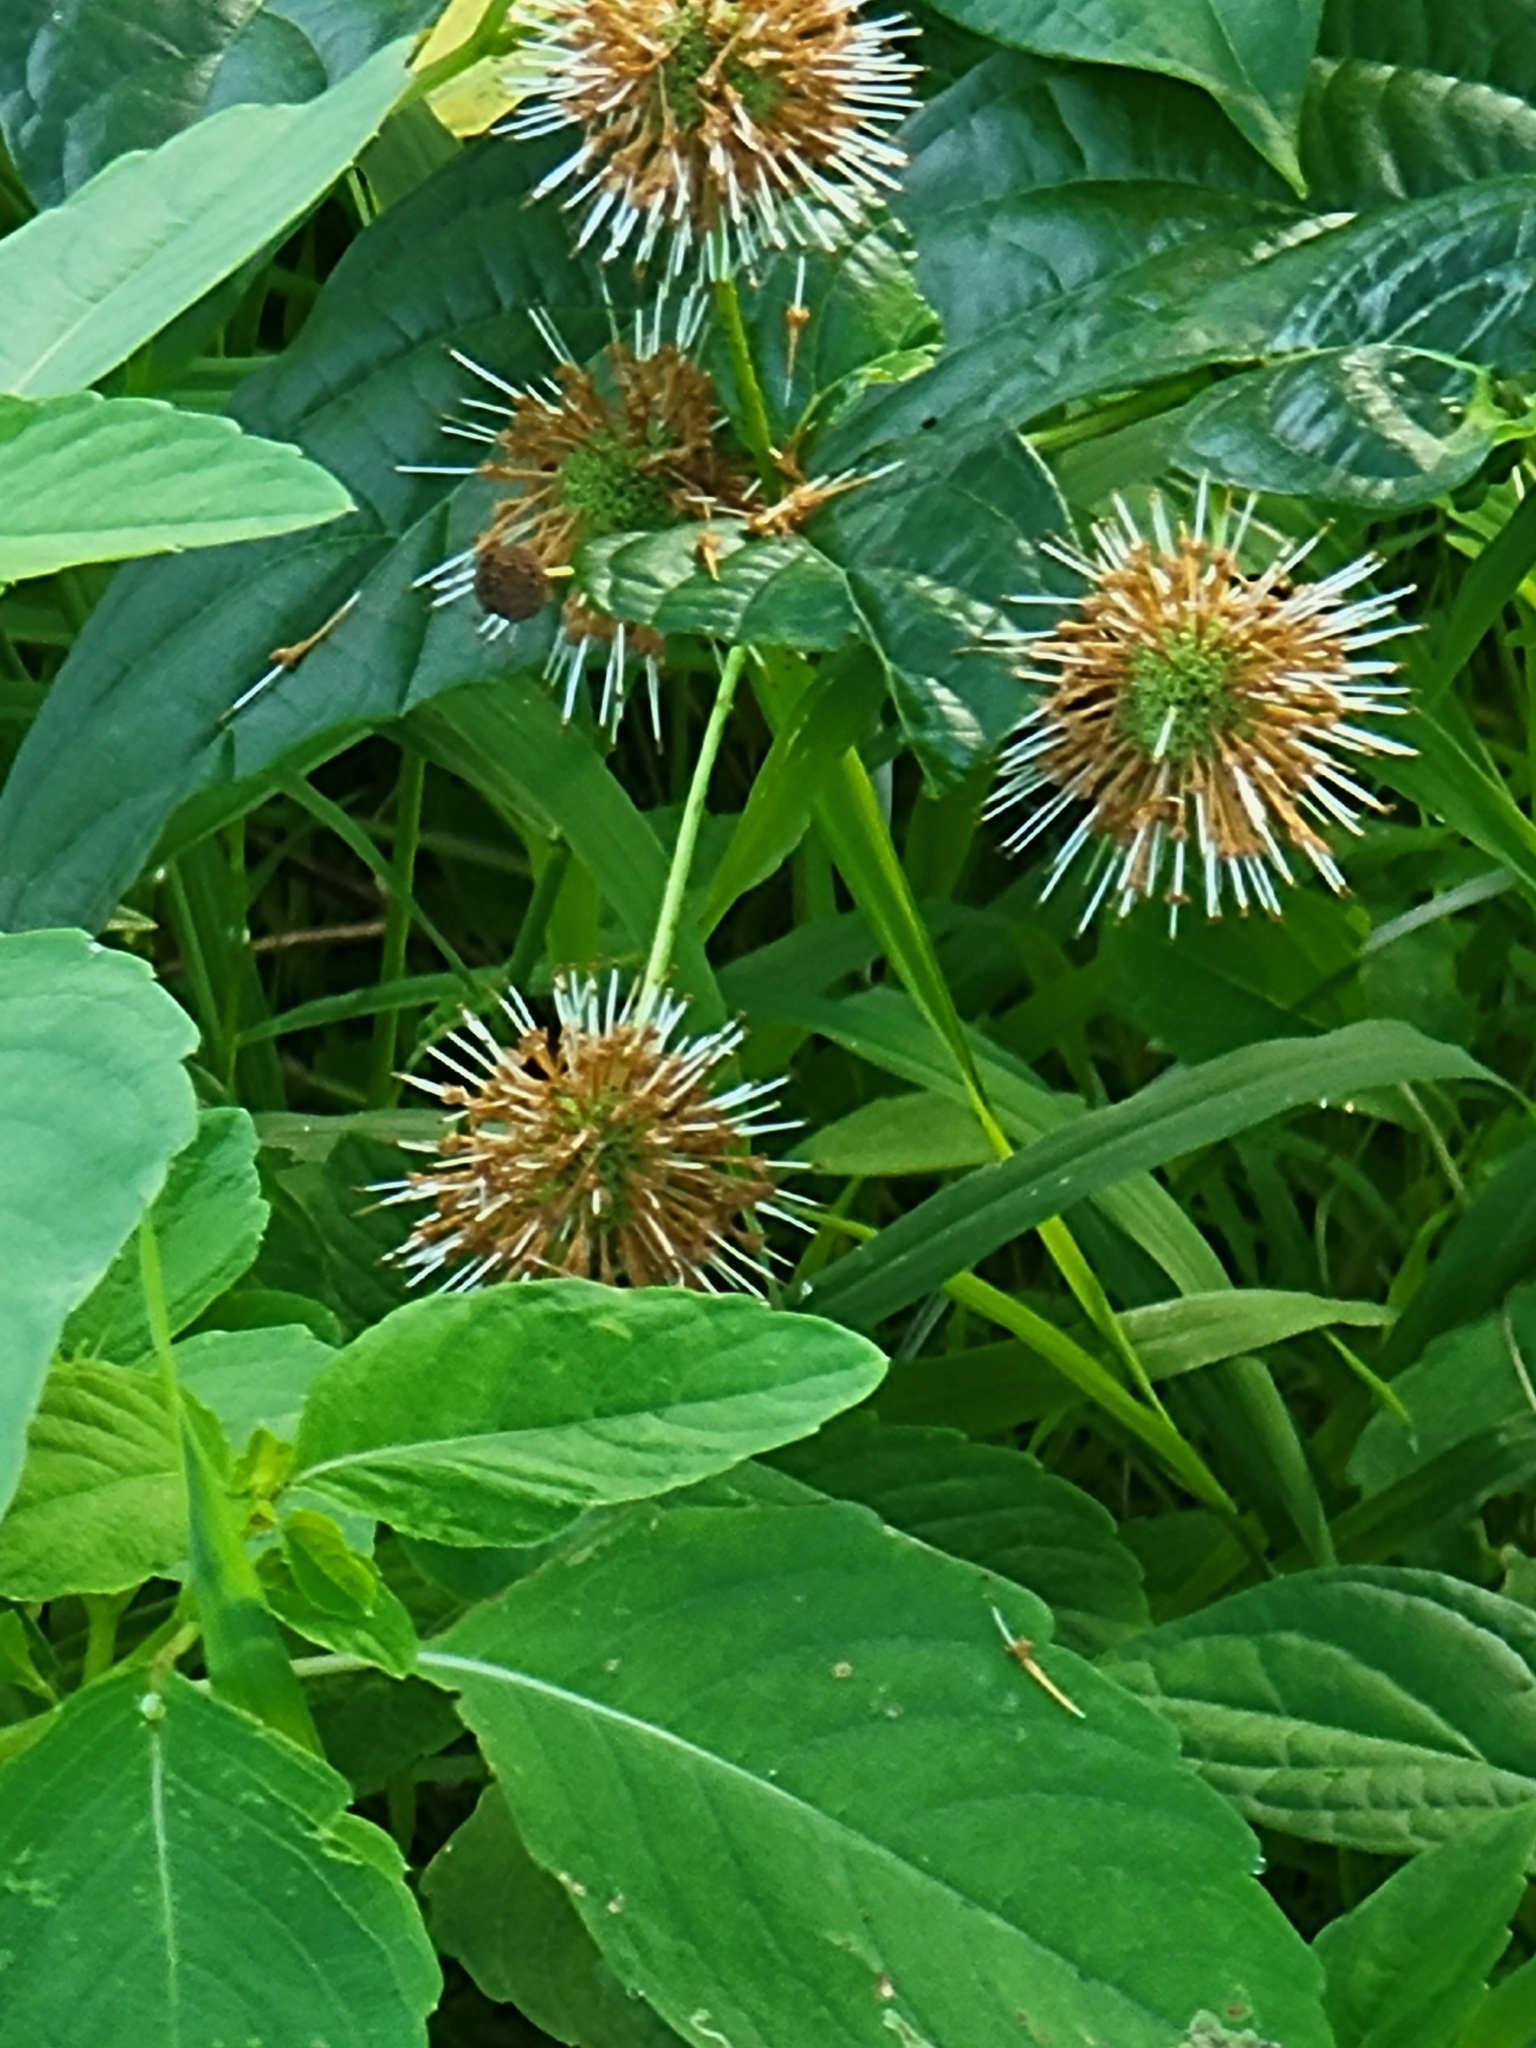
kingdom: Plantae
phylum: Tracheophyta
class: Magnoliopsida
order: Gentianales
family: Rubiaceae
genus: Cephalanthus
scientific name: Cephalanthus occidentalis
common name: Button-willow
